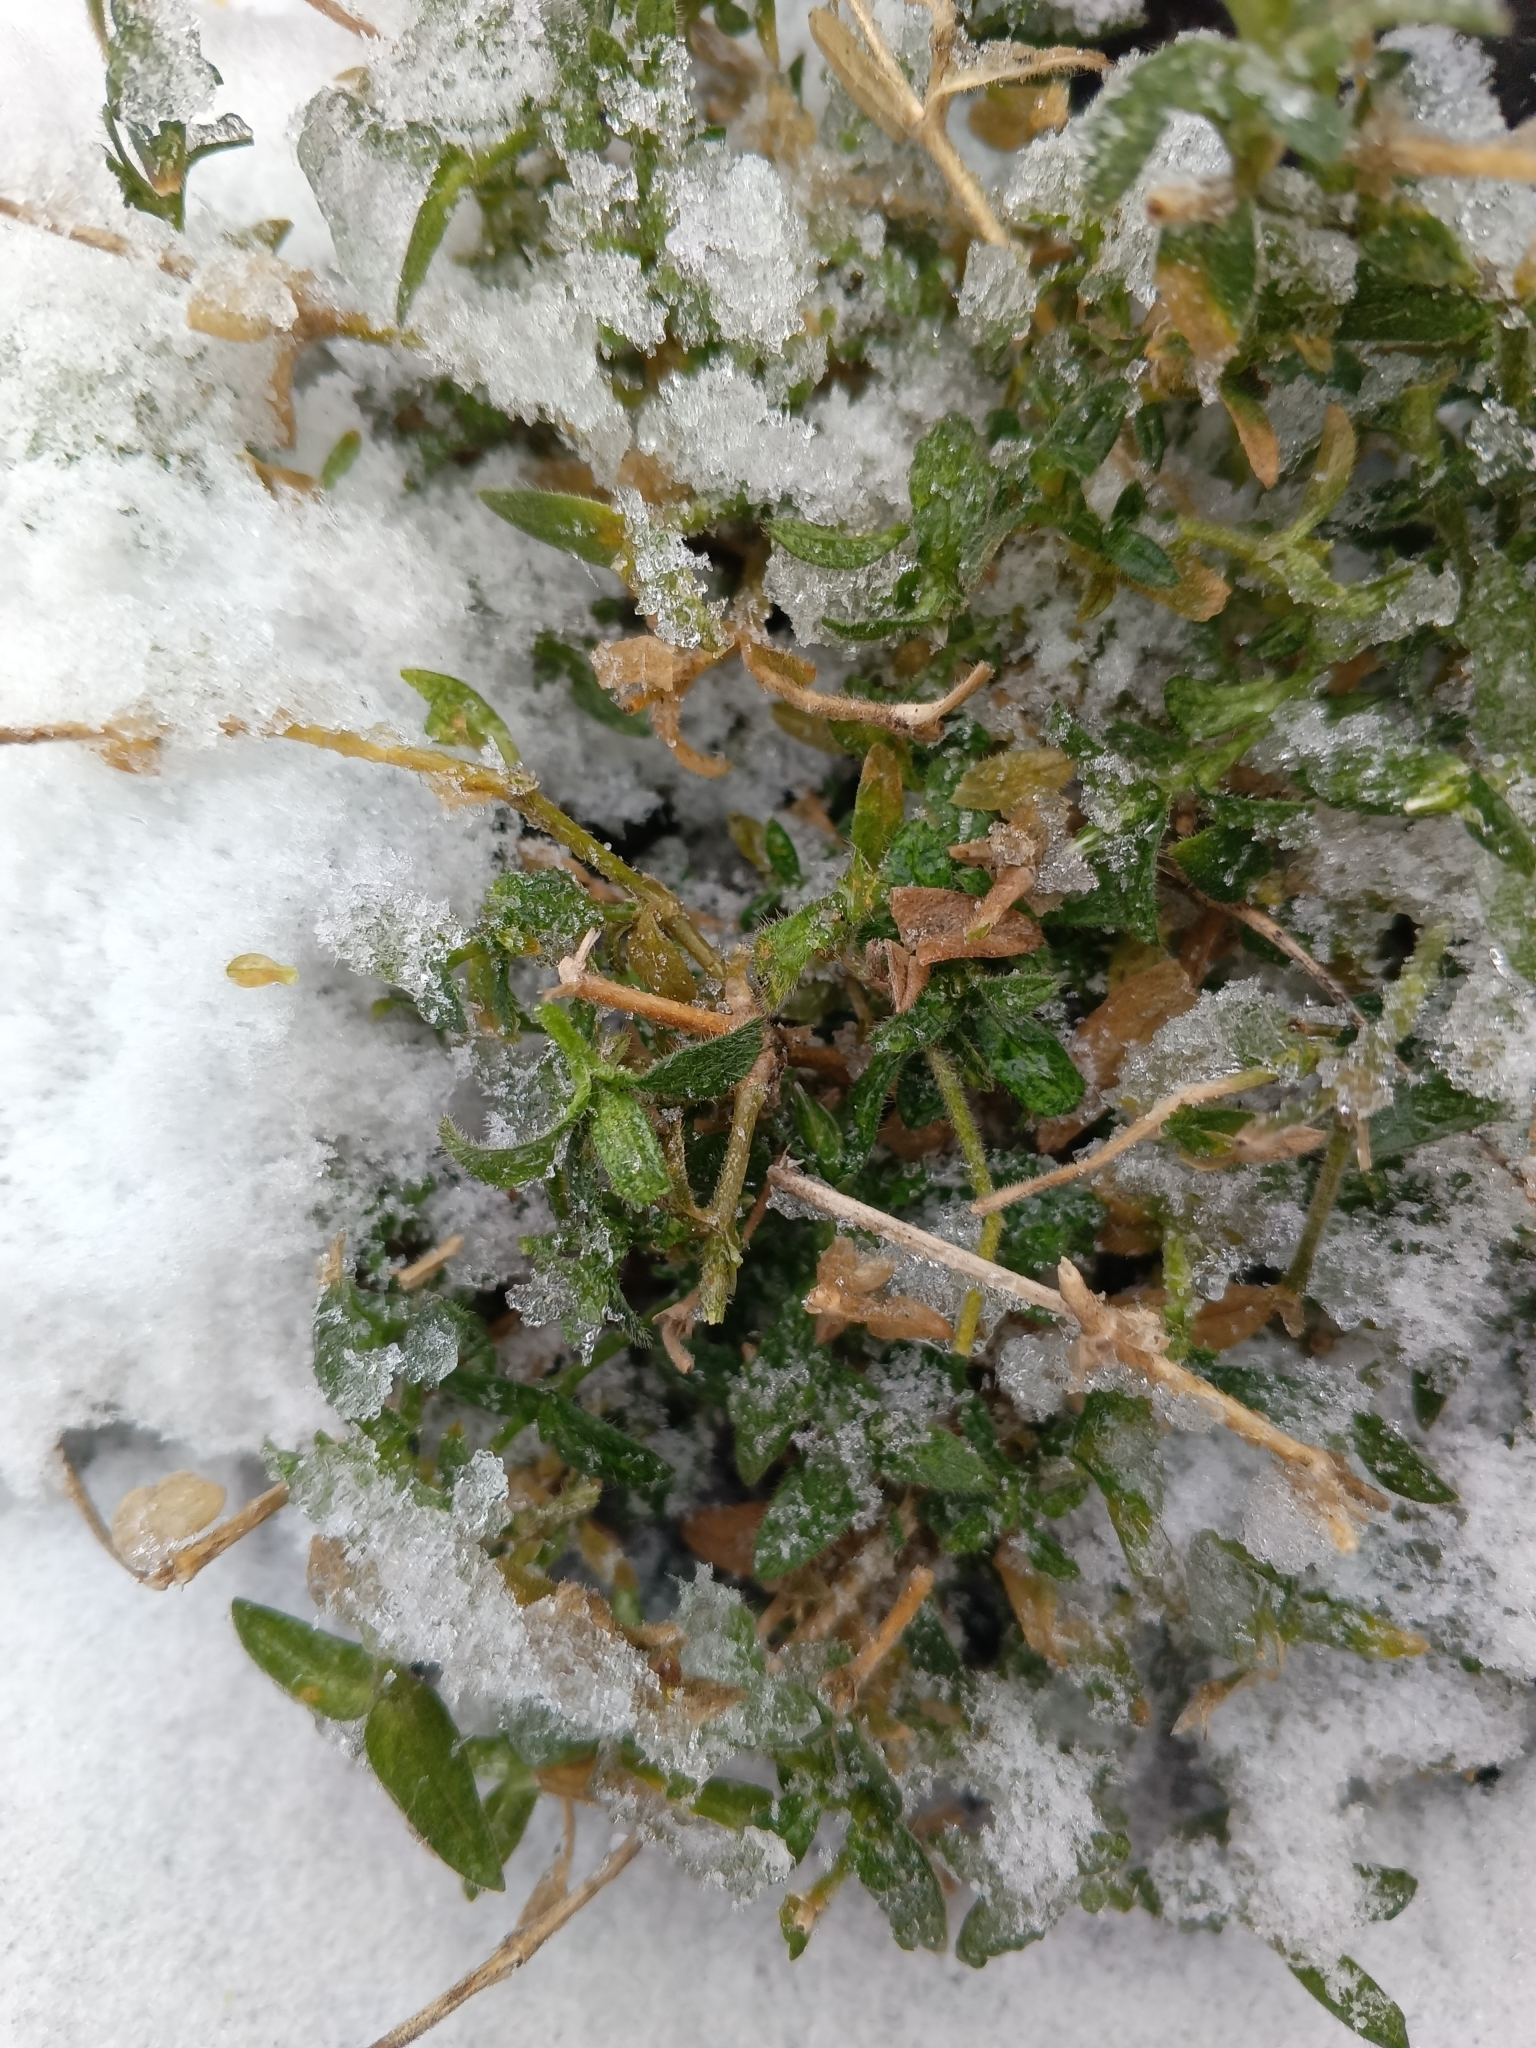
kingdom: Plantae
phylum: Tracheophyta
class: Magnoliopsida
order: Caryophyllales
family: Caryophyllaceae
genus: Cerastium
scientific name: Cerastium holosteoides
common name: Big chickweed
